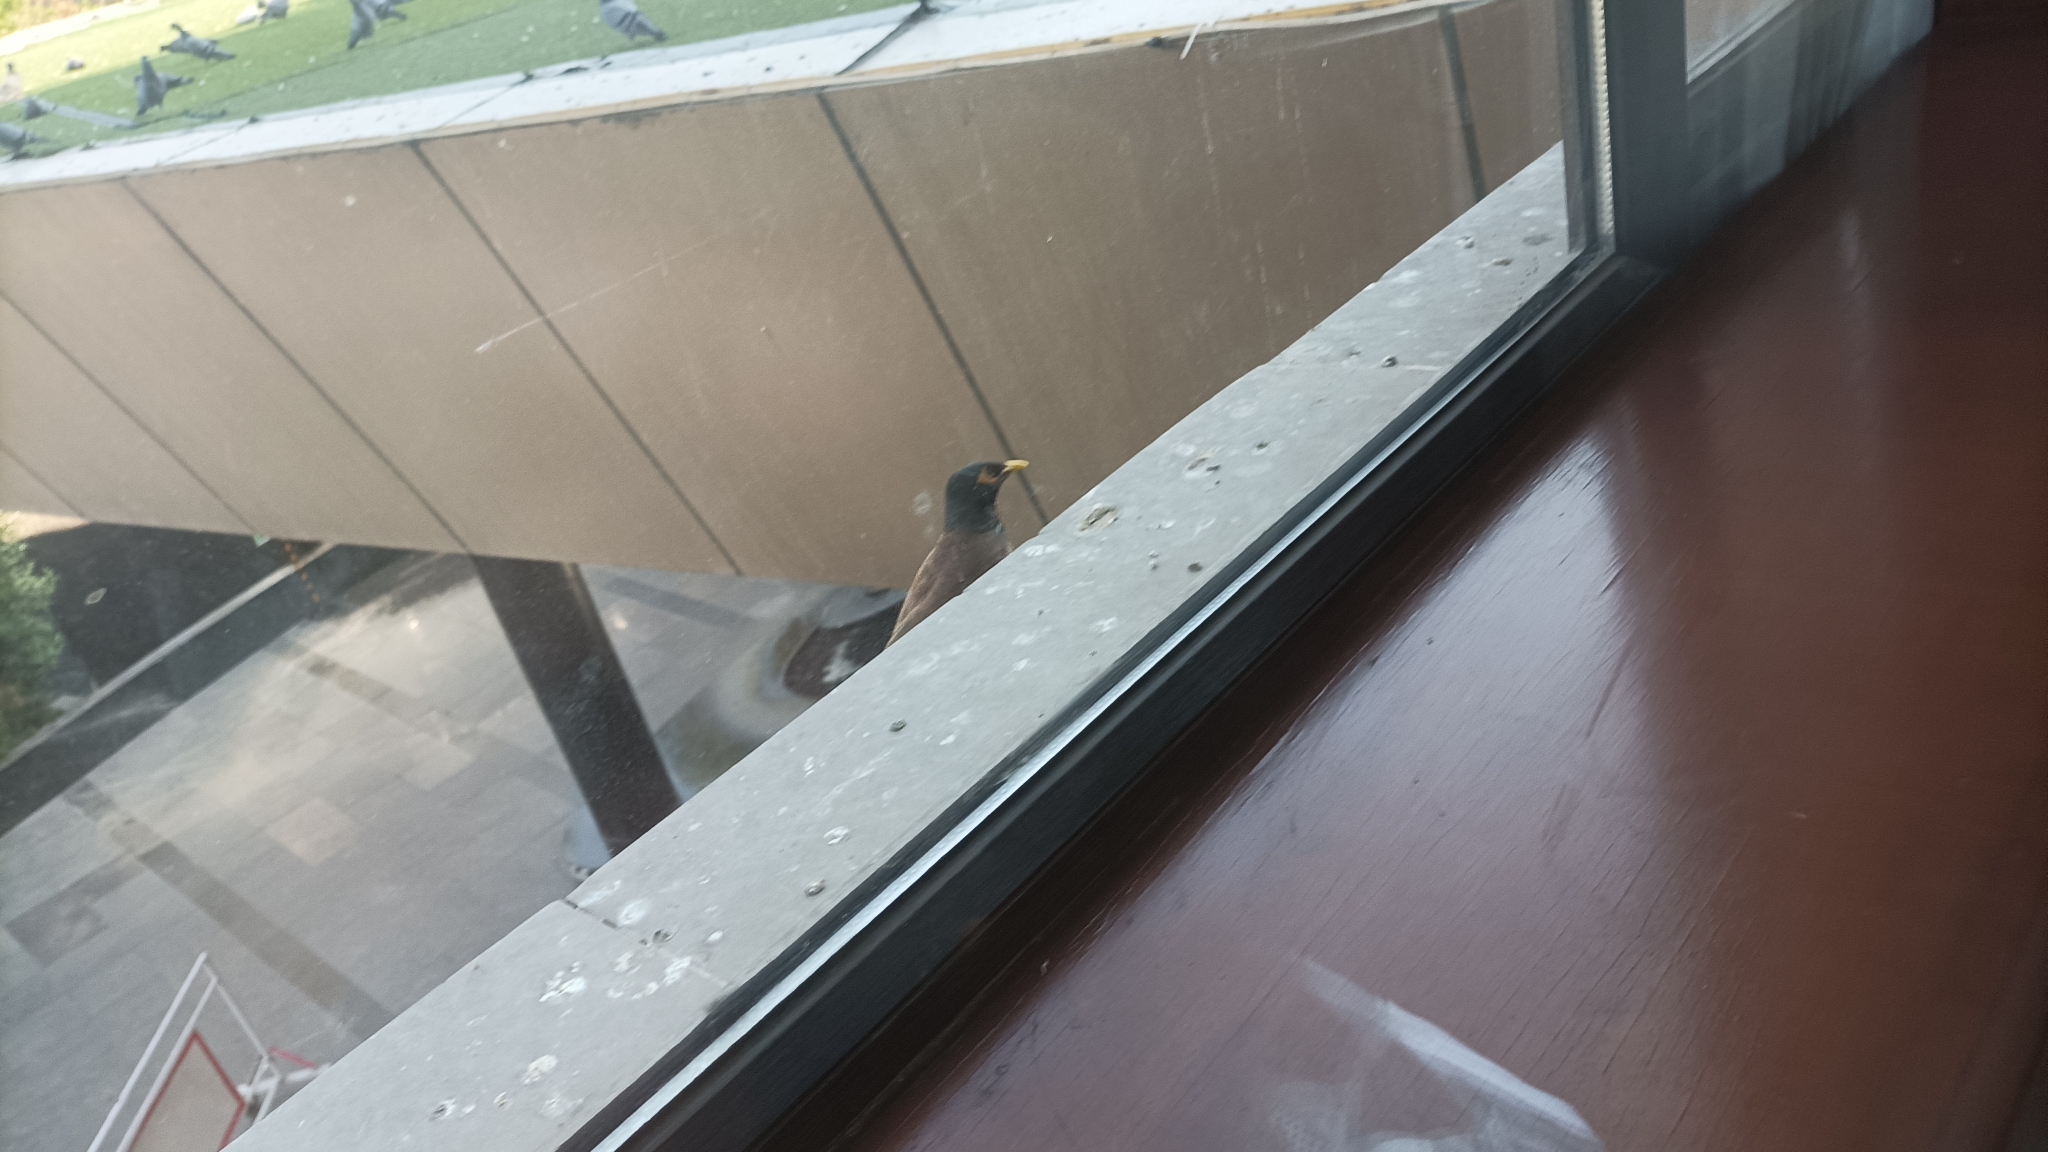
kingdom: Animalia
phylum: Chordata
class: Aves
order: Passeriformes
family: Sturnidae
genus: Acridotheres
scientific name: Acridotheres tristis
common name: Common myna
